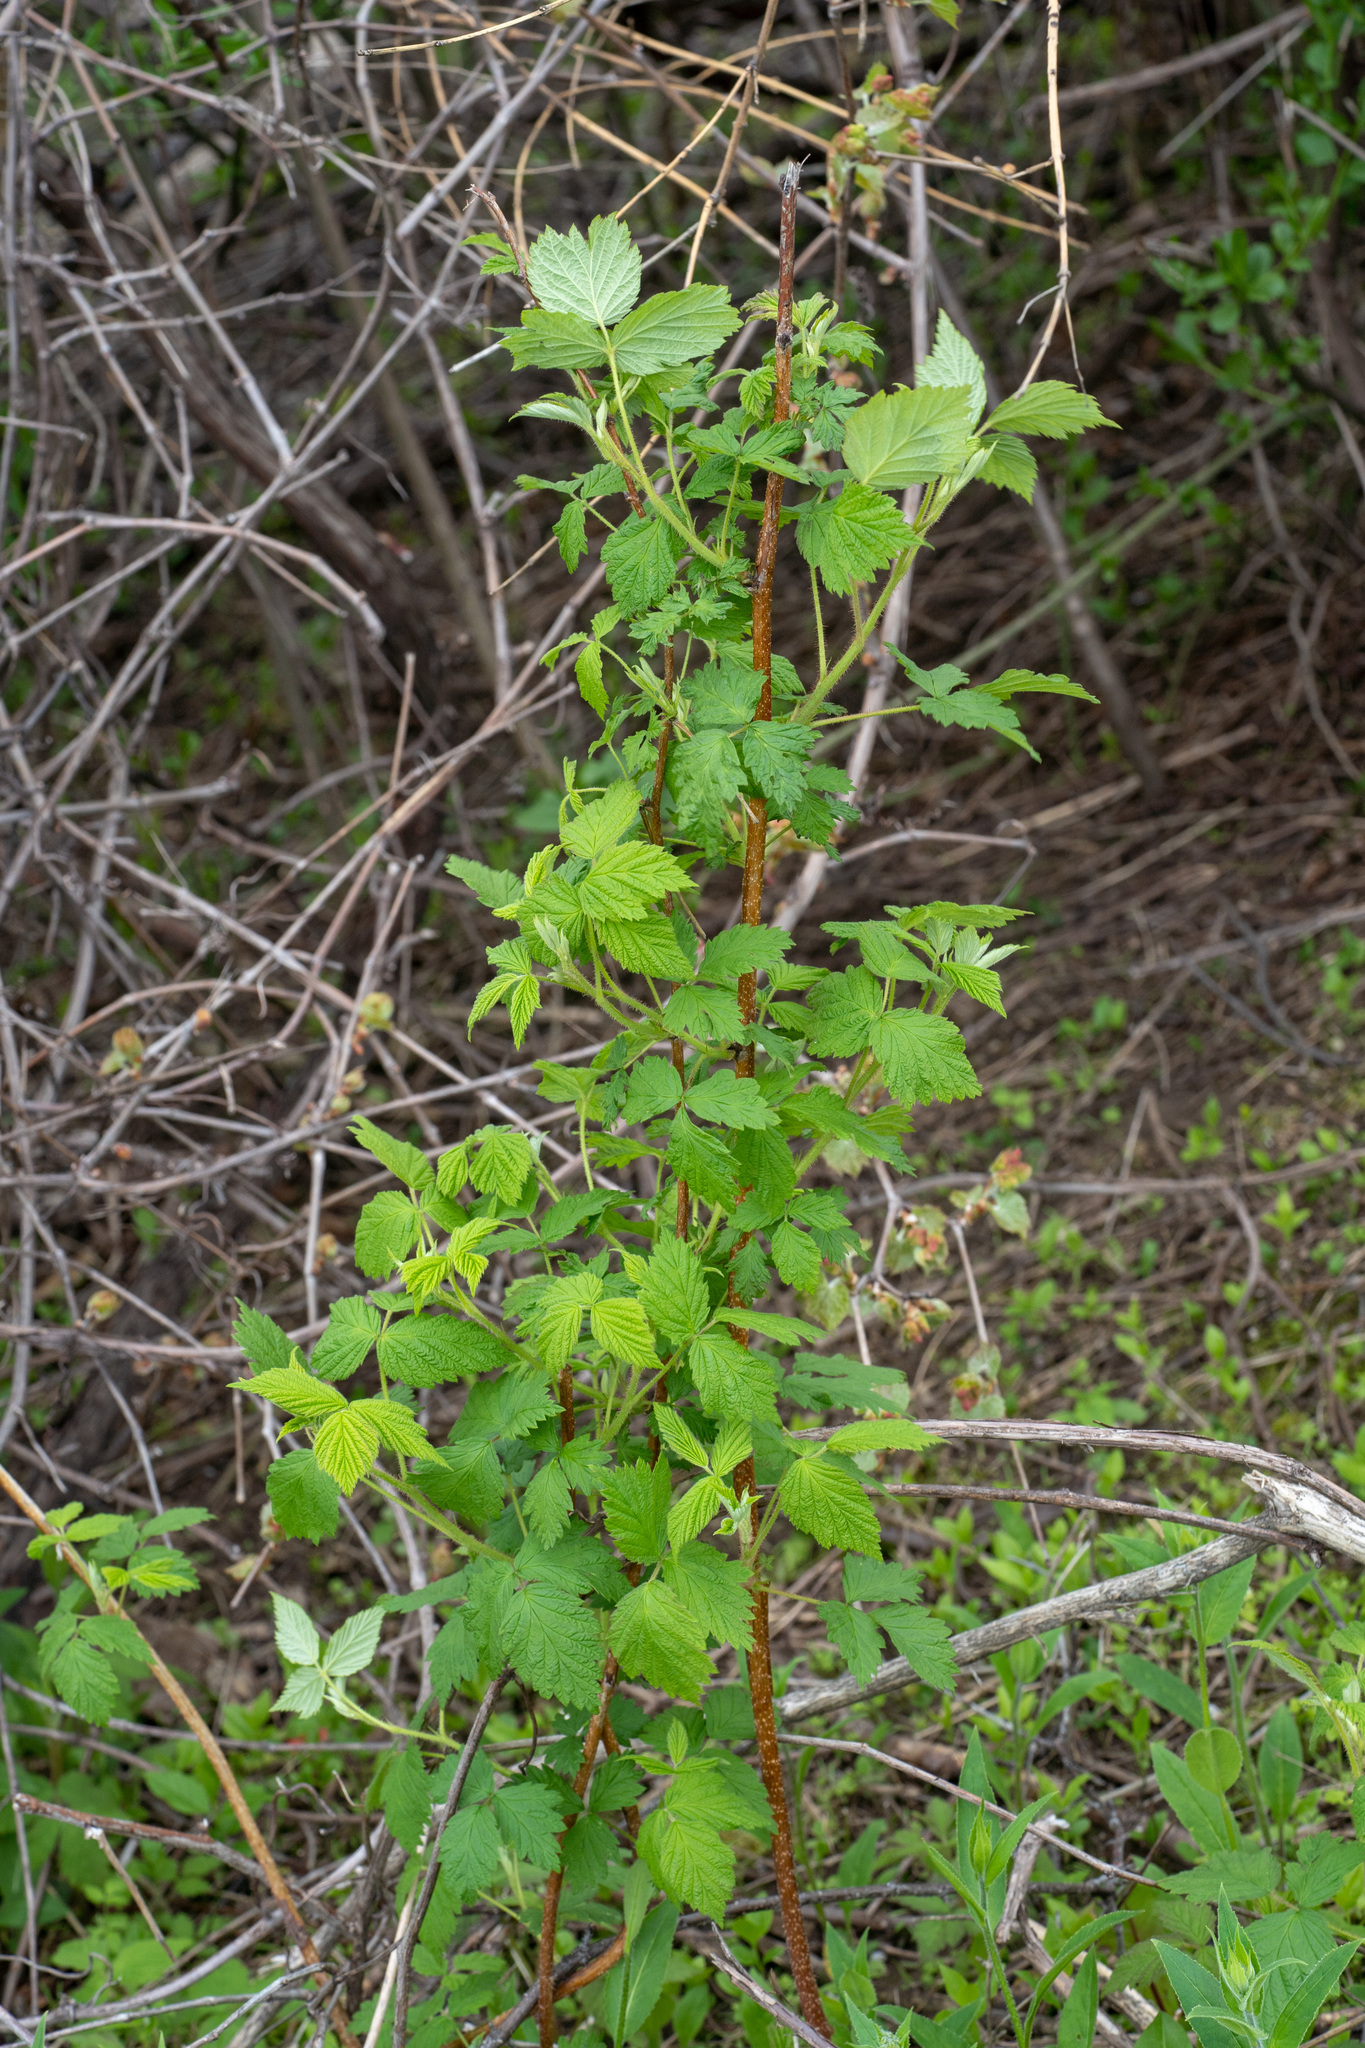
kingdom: Plantae
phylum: Tracheophyta
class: Magnoliopsida
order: Rosales
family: Rosaceae
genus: Rubus
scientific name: Rubus idaeus
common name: Raspberry
